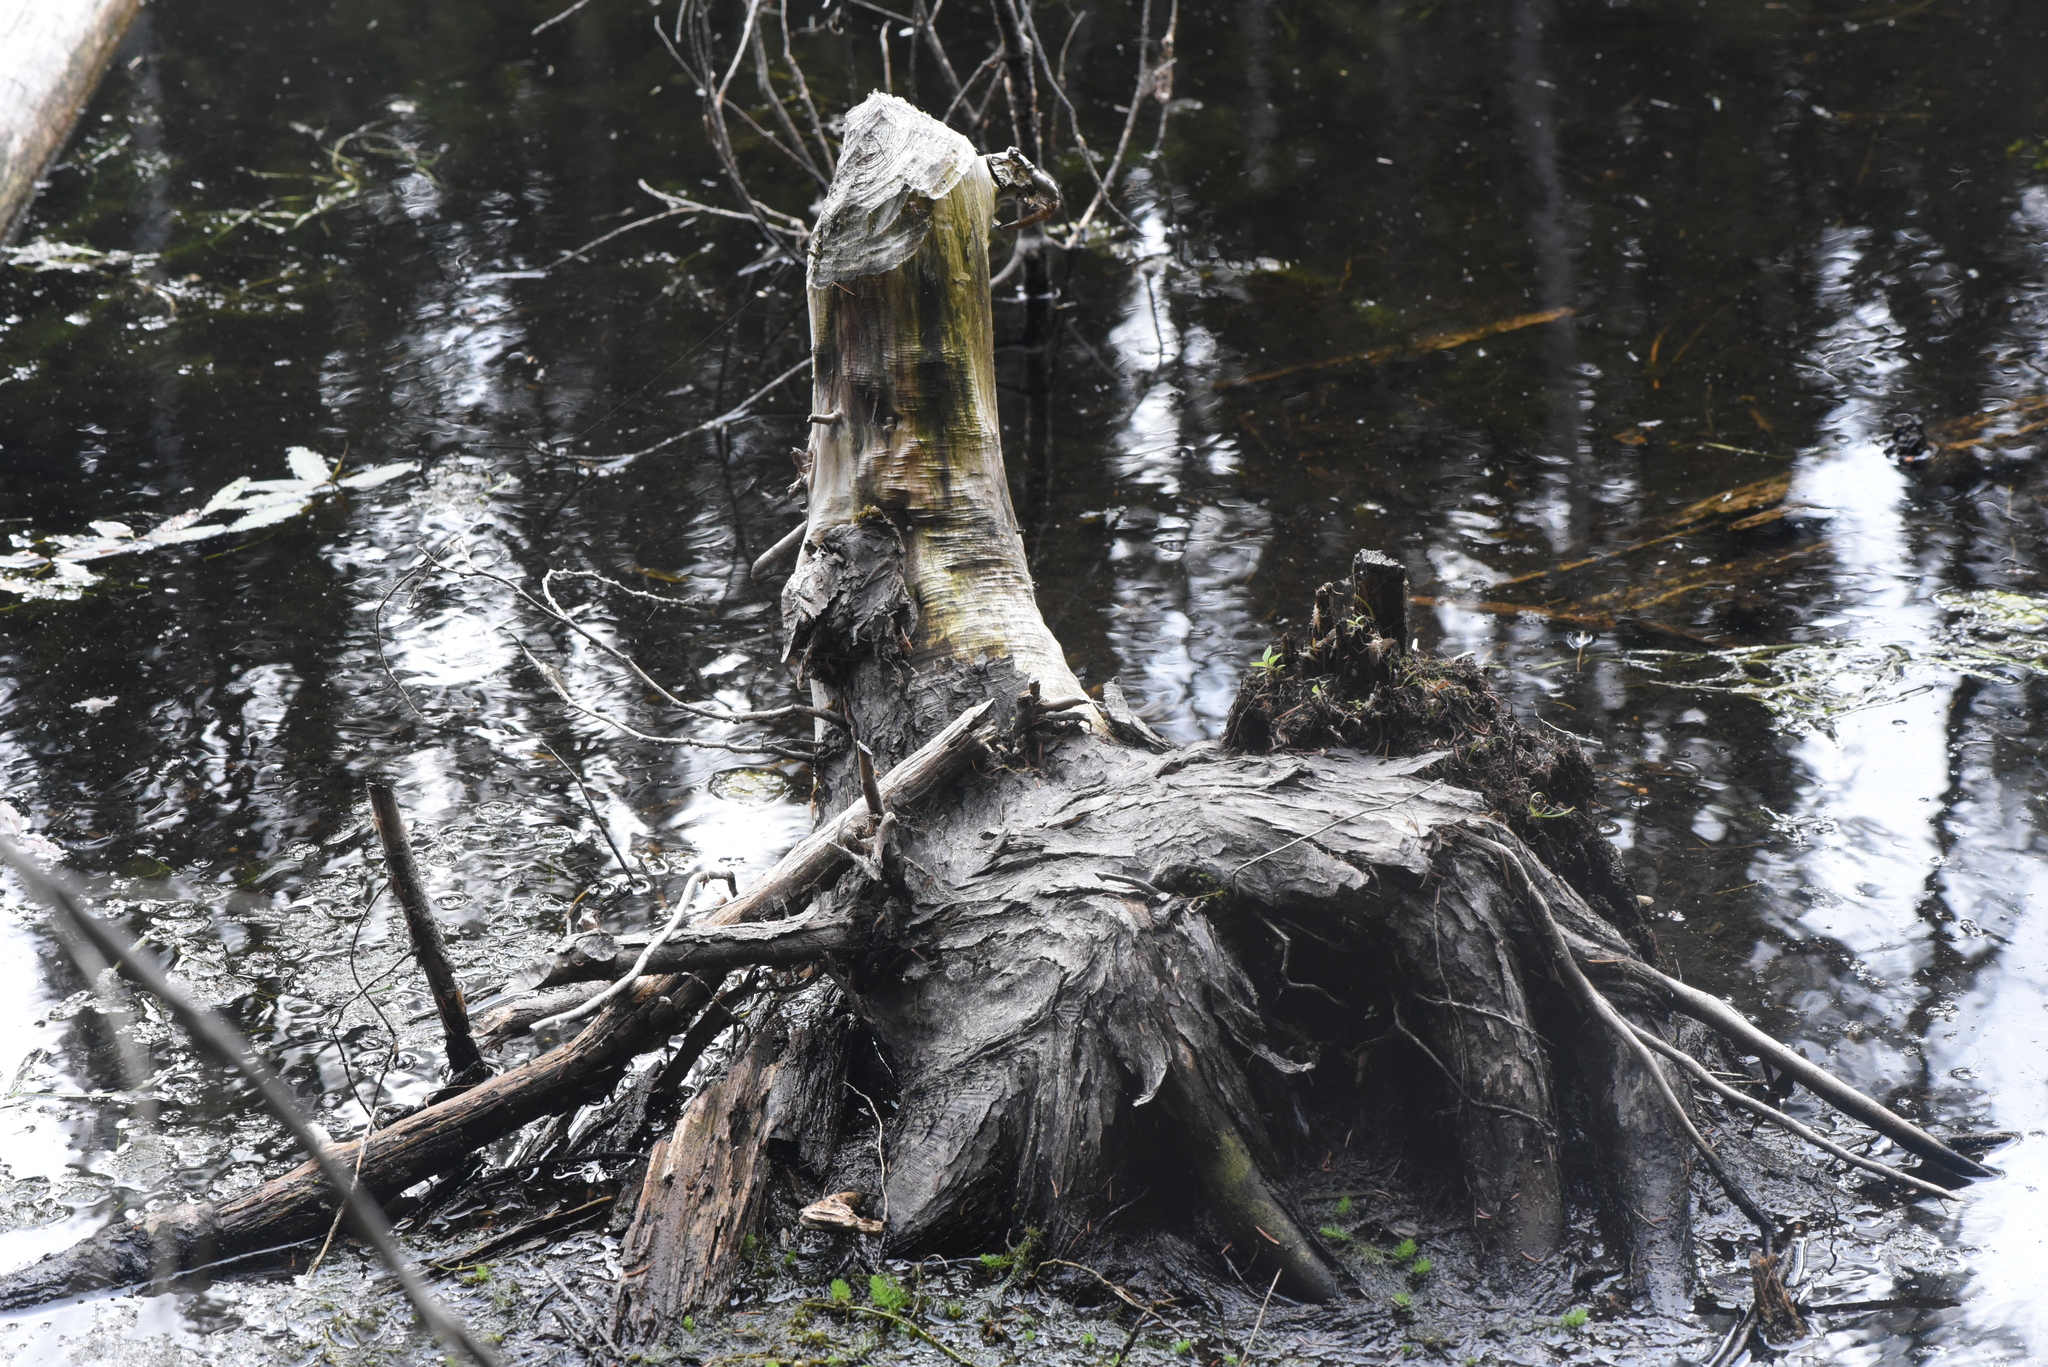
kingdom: Animalia
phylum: Chordata
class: Mammalia
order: Rodentia
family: Castoridae
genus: Castor
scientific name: Castor canadensis
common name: American beaver
